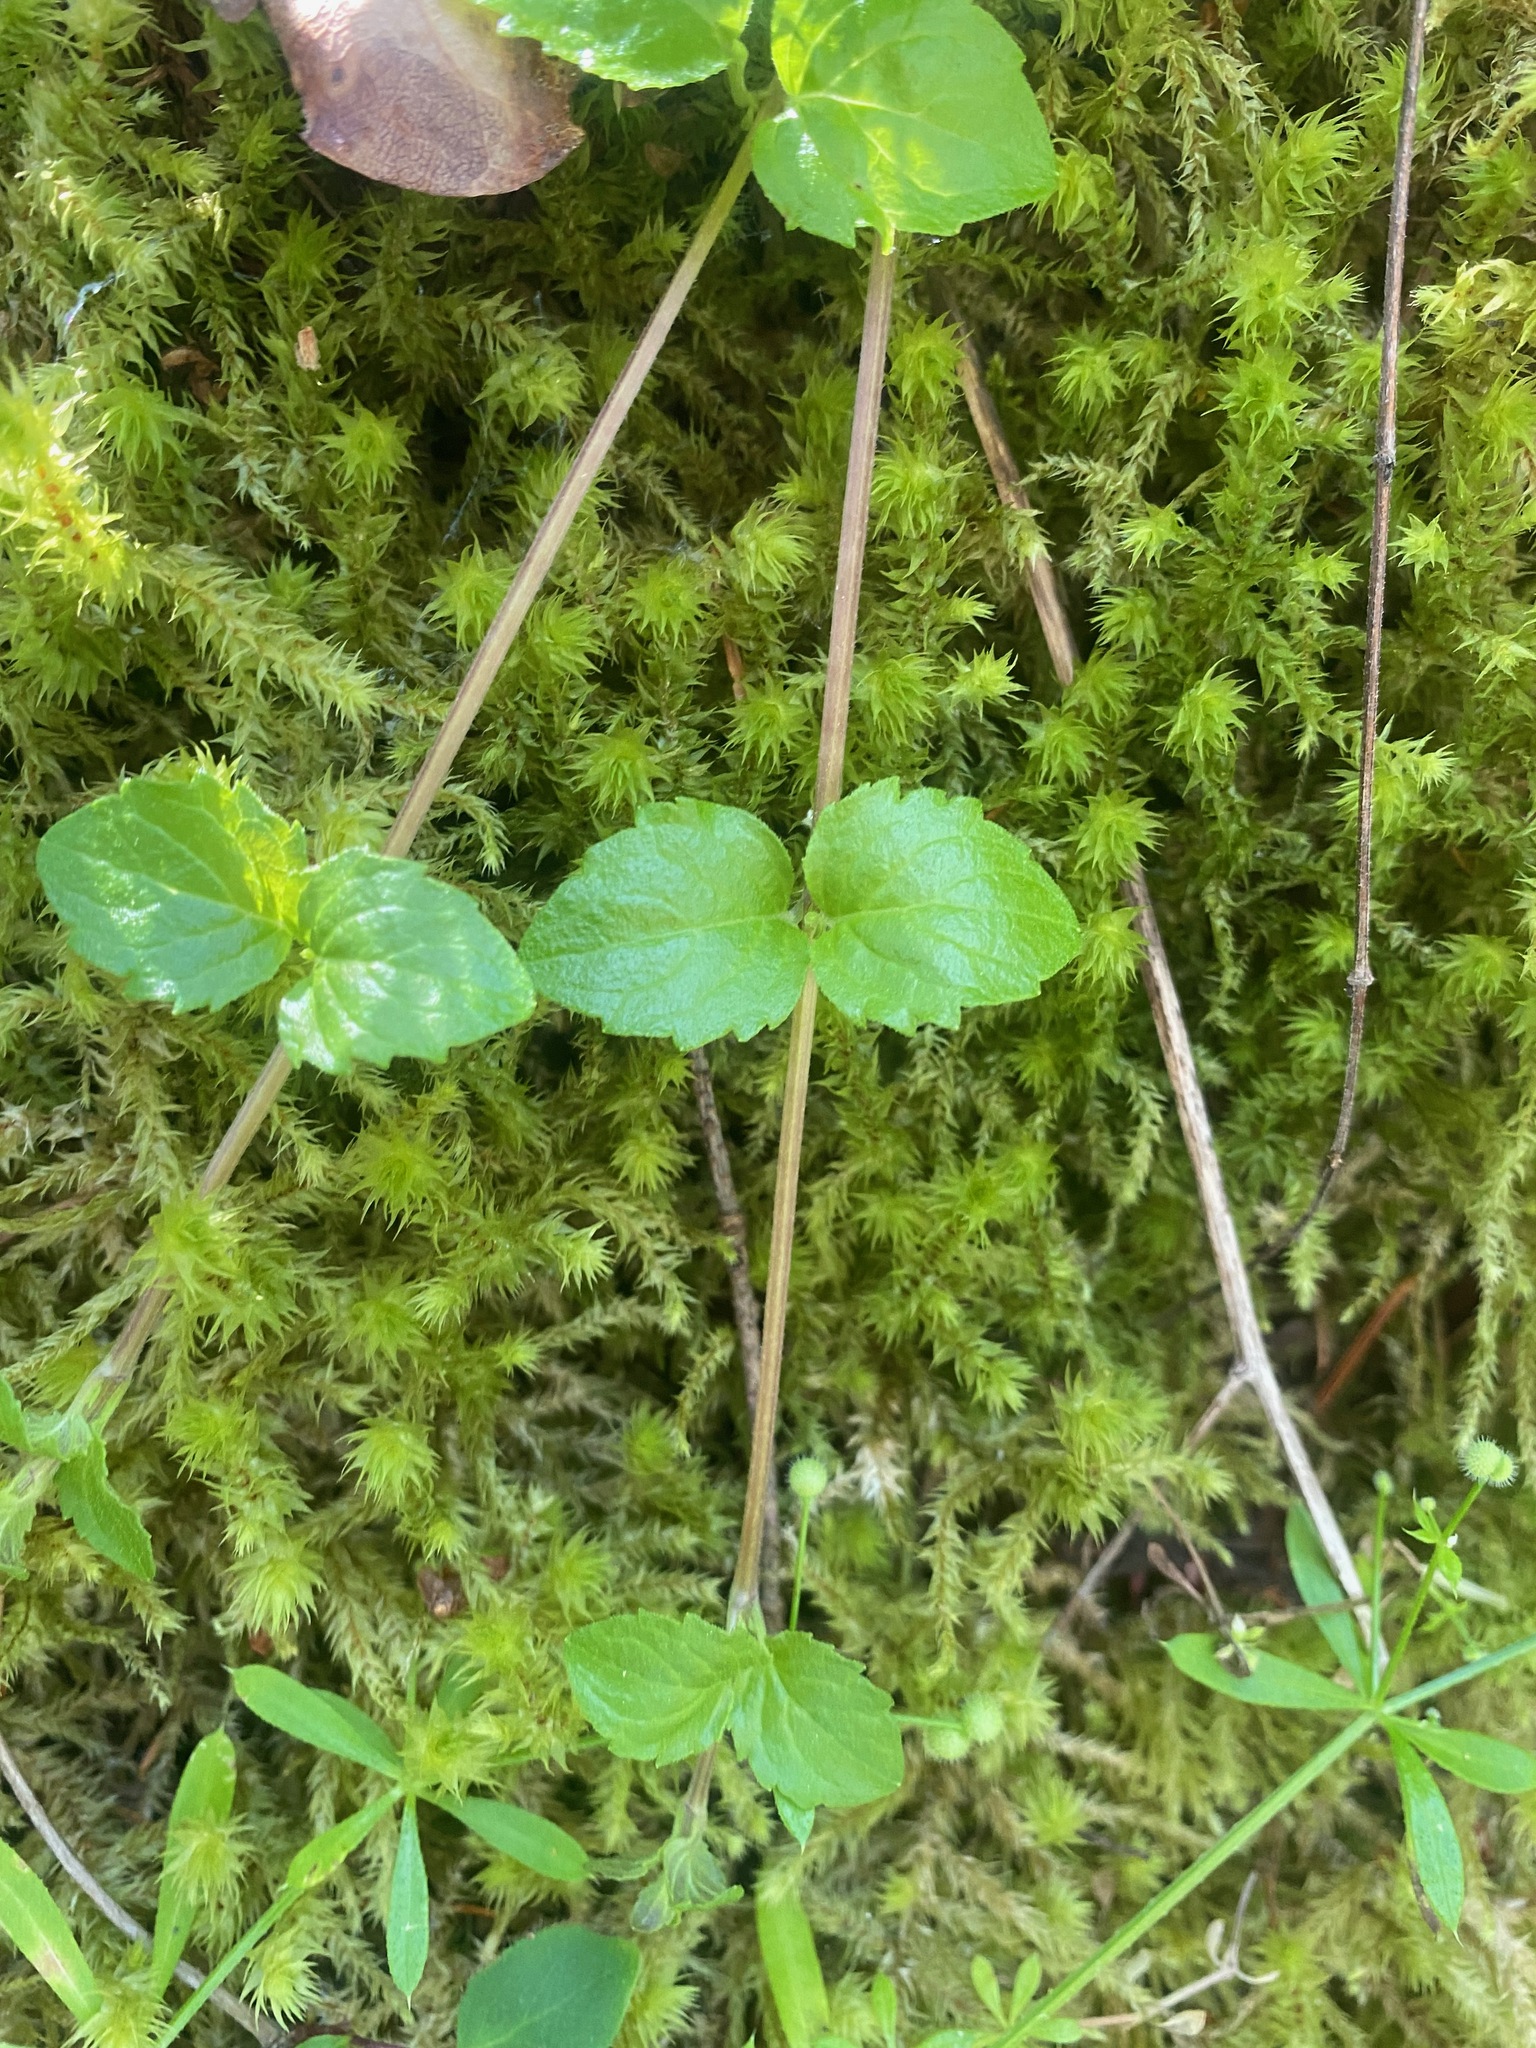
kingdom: Plantae
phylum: Tracheophyta
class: Magnoliopsida
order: Lamiales
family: Lamiaceae
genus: Micromeria
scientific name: Micromeria douglasii
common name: Yerba buena
